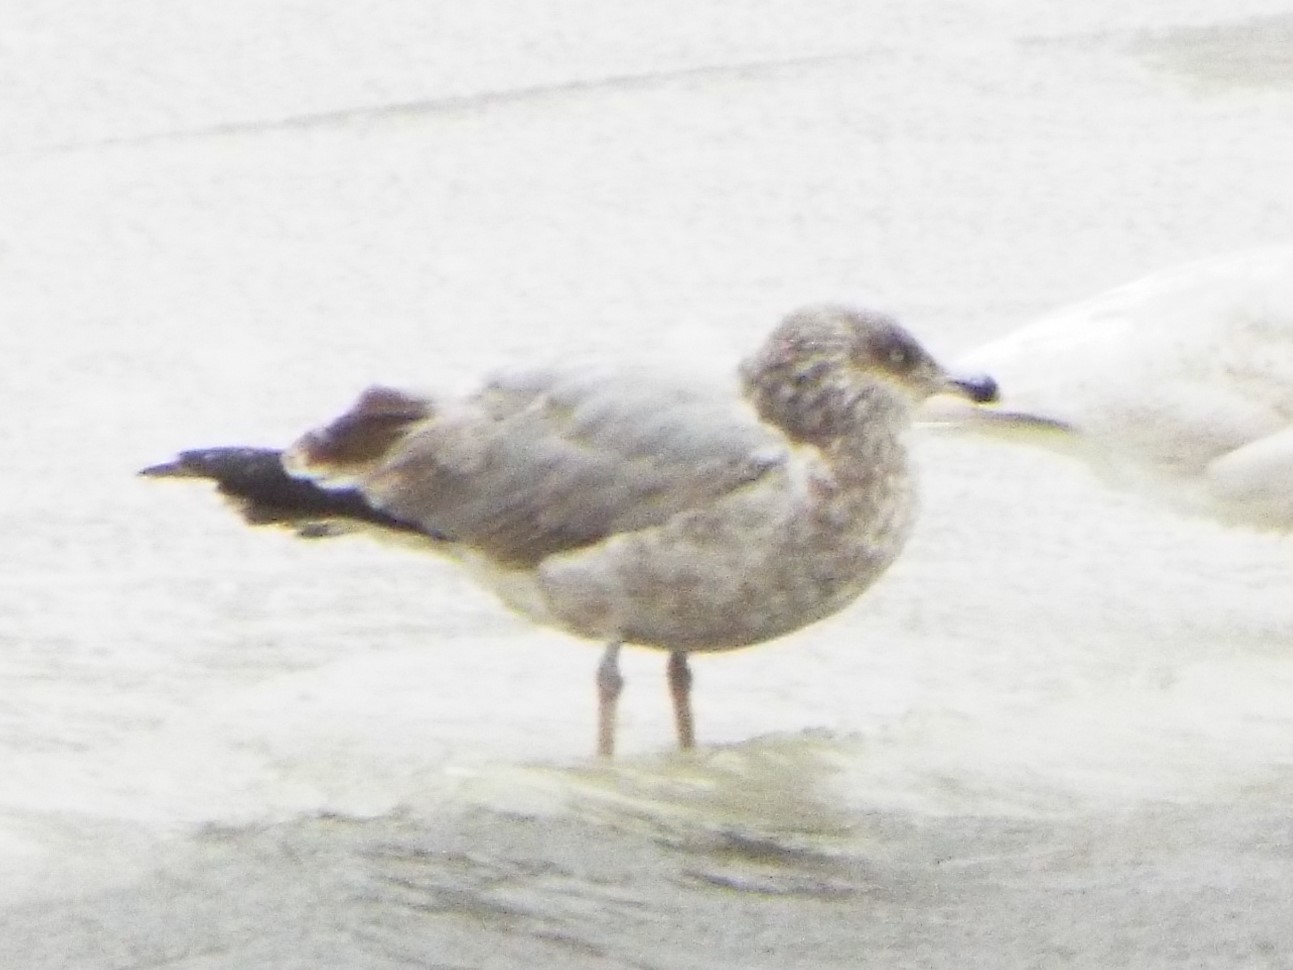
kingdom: Animalia
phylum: Chordata
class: Aves
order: Charadriiformes
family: Laridae
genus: Larus
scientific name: Larus argentatus
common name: Herring gull
